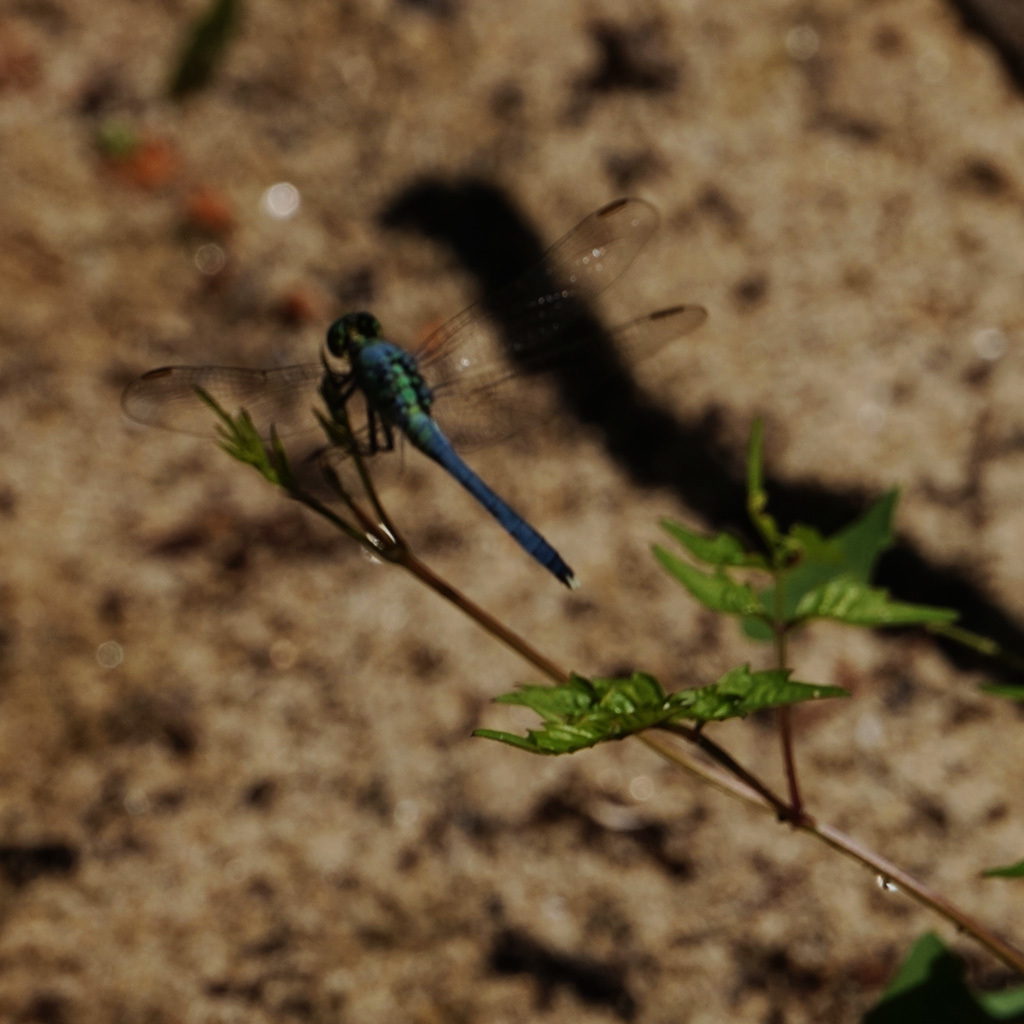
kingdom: Animalia
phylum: Arthropoda
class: Insecta
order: Odonata
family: Libellulidae
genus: Erythemis
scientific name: Erythemis simplicicollis
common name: Eastern pondhawk
